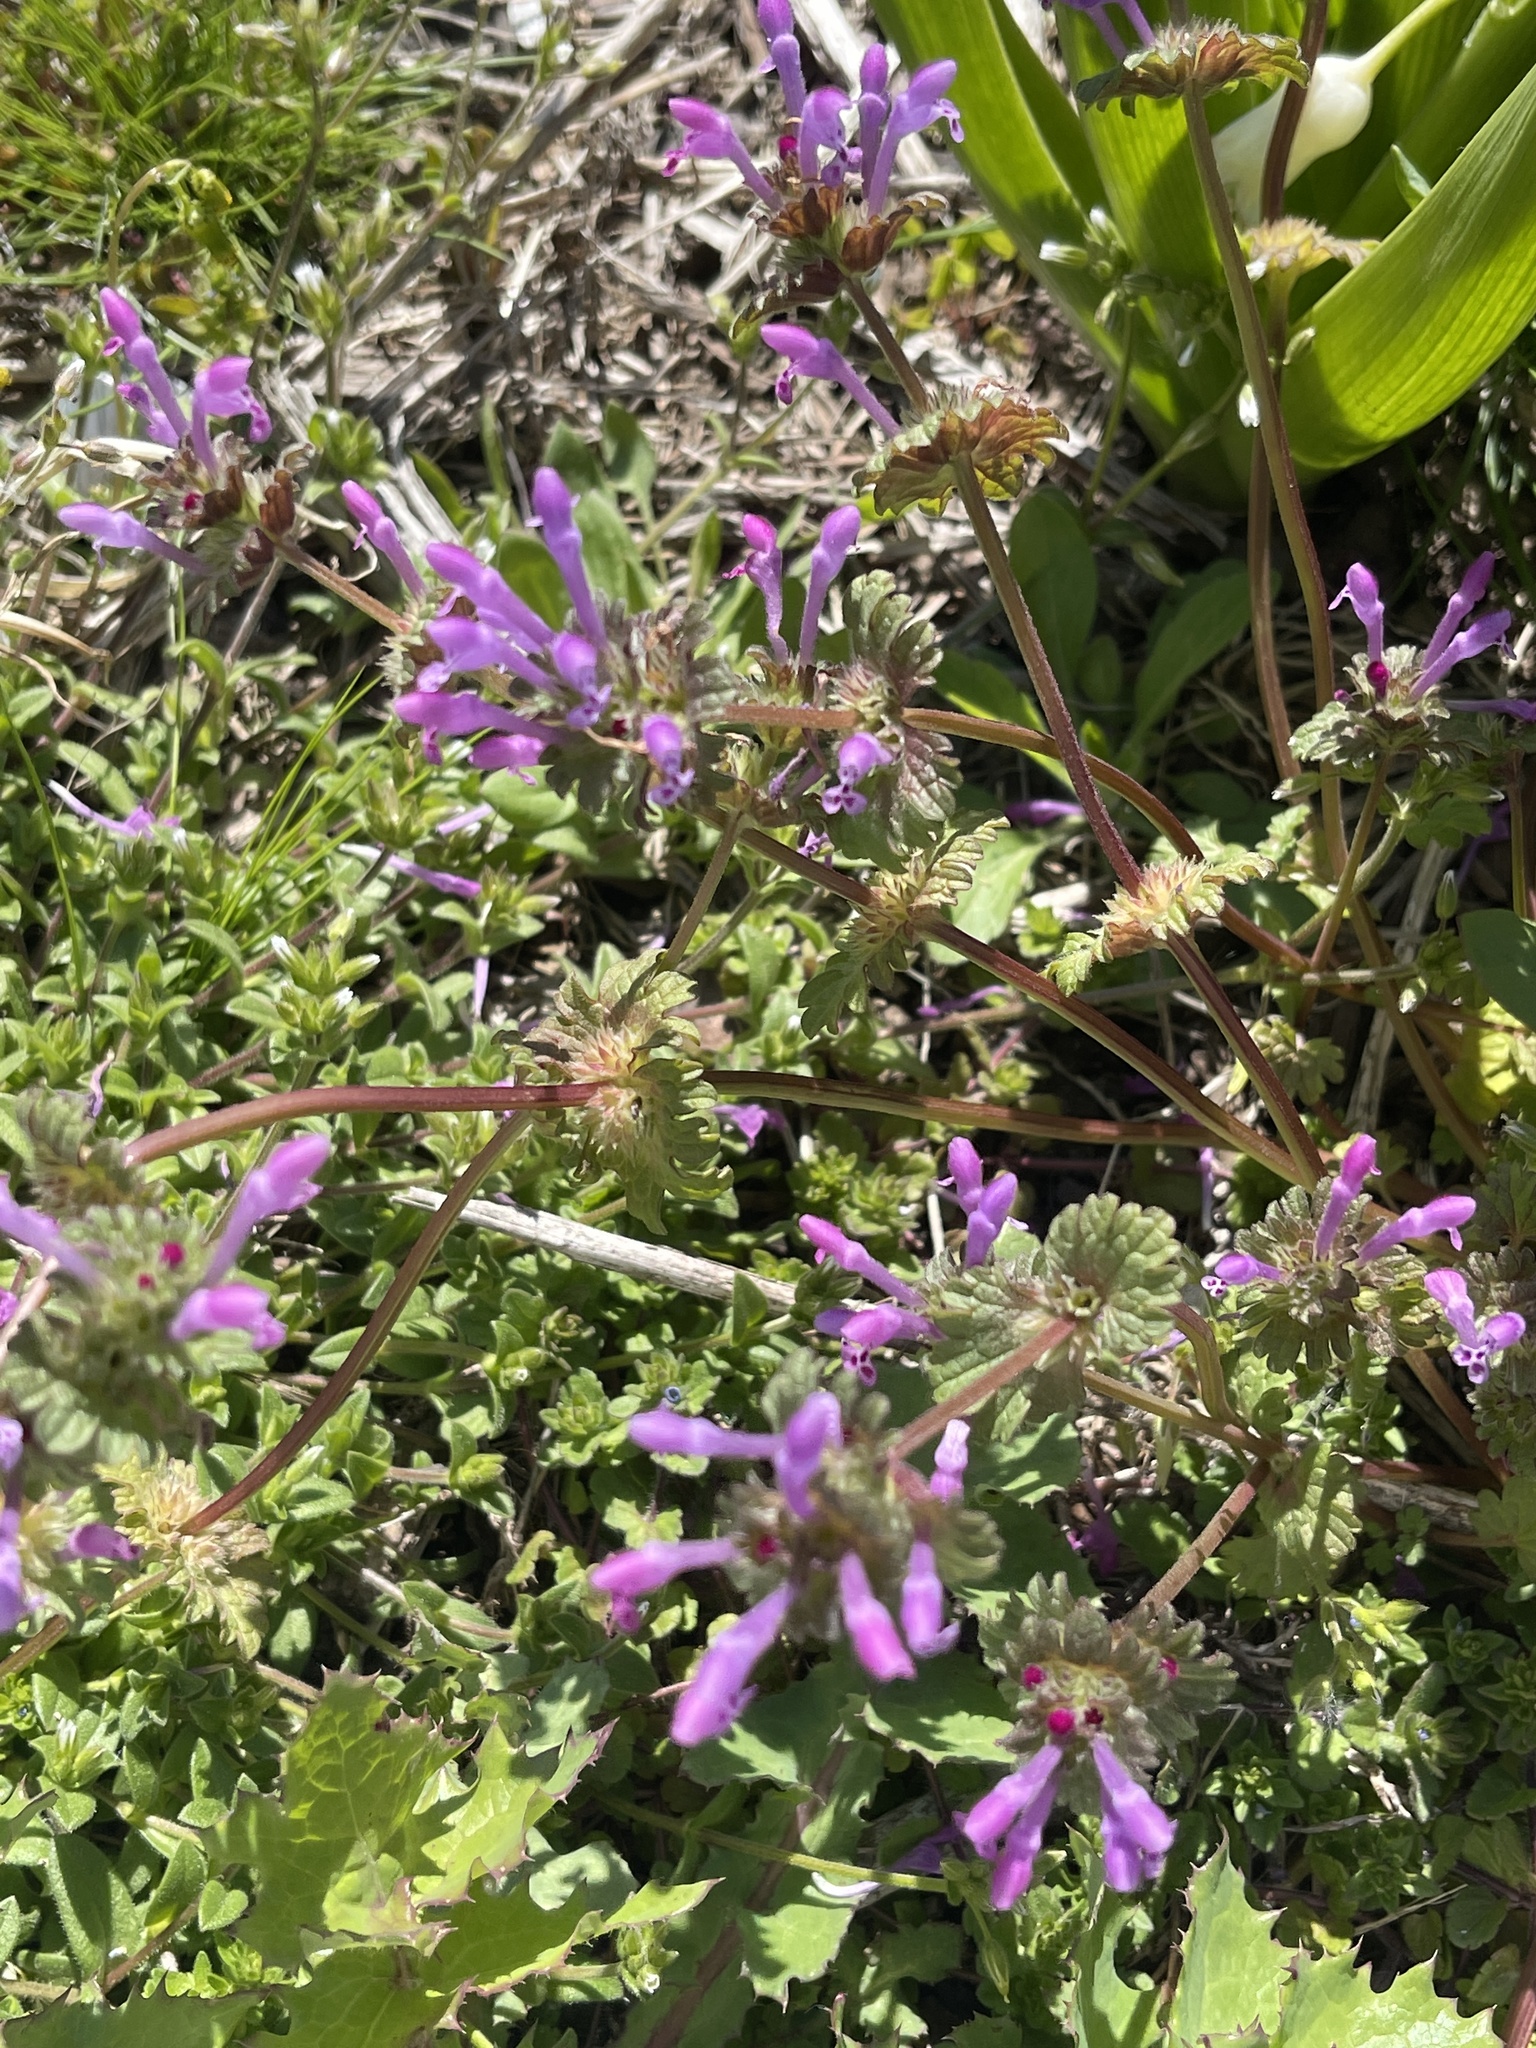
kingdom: Plantae
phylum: Tracheophyta
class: Magnoliopsida
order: Lamiales
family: Lamiaceae
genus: Lamium
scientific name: Lamium amplexicaule
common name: Henbit dead-nettle
